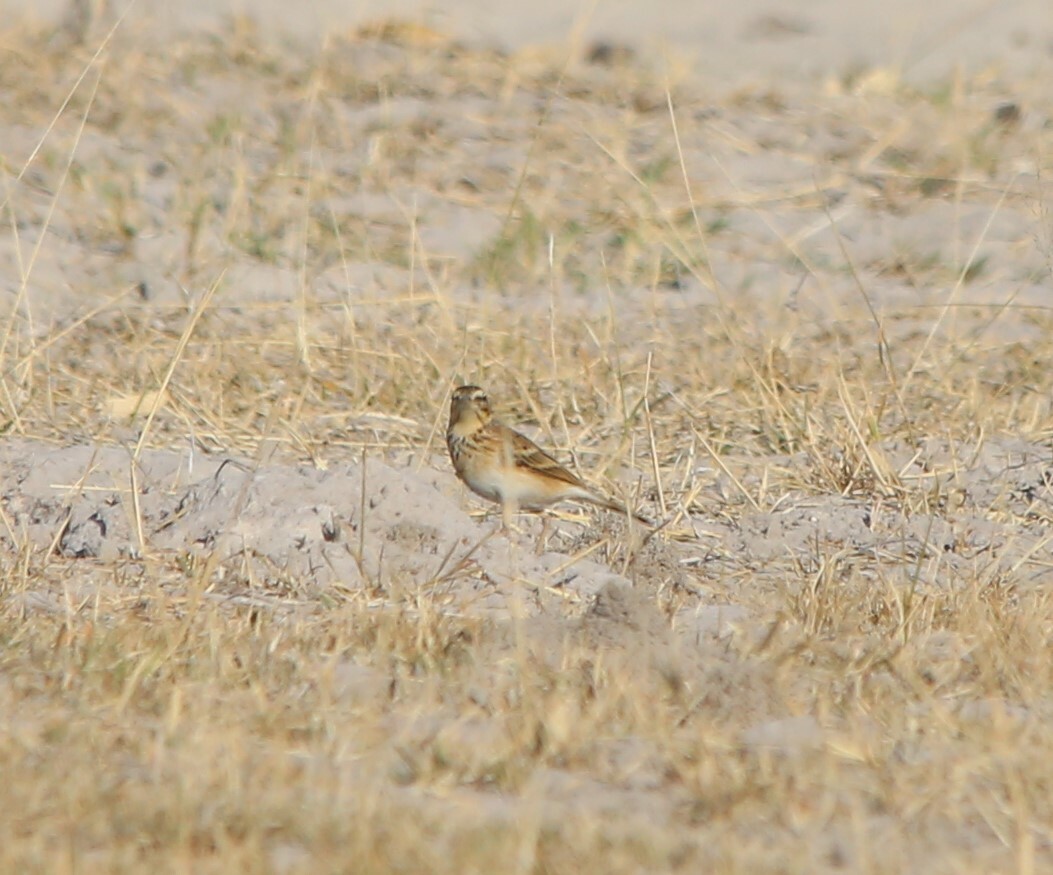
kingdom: Animalia
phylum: Chordata
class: Aves
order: Passeriformes
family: Alaudidae
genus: Mirafra
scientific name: Mirafra africana
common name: Rufous-naped lark
